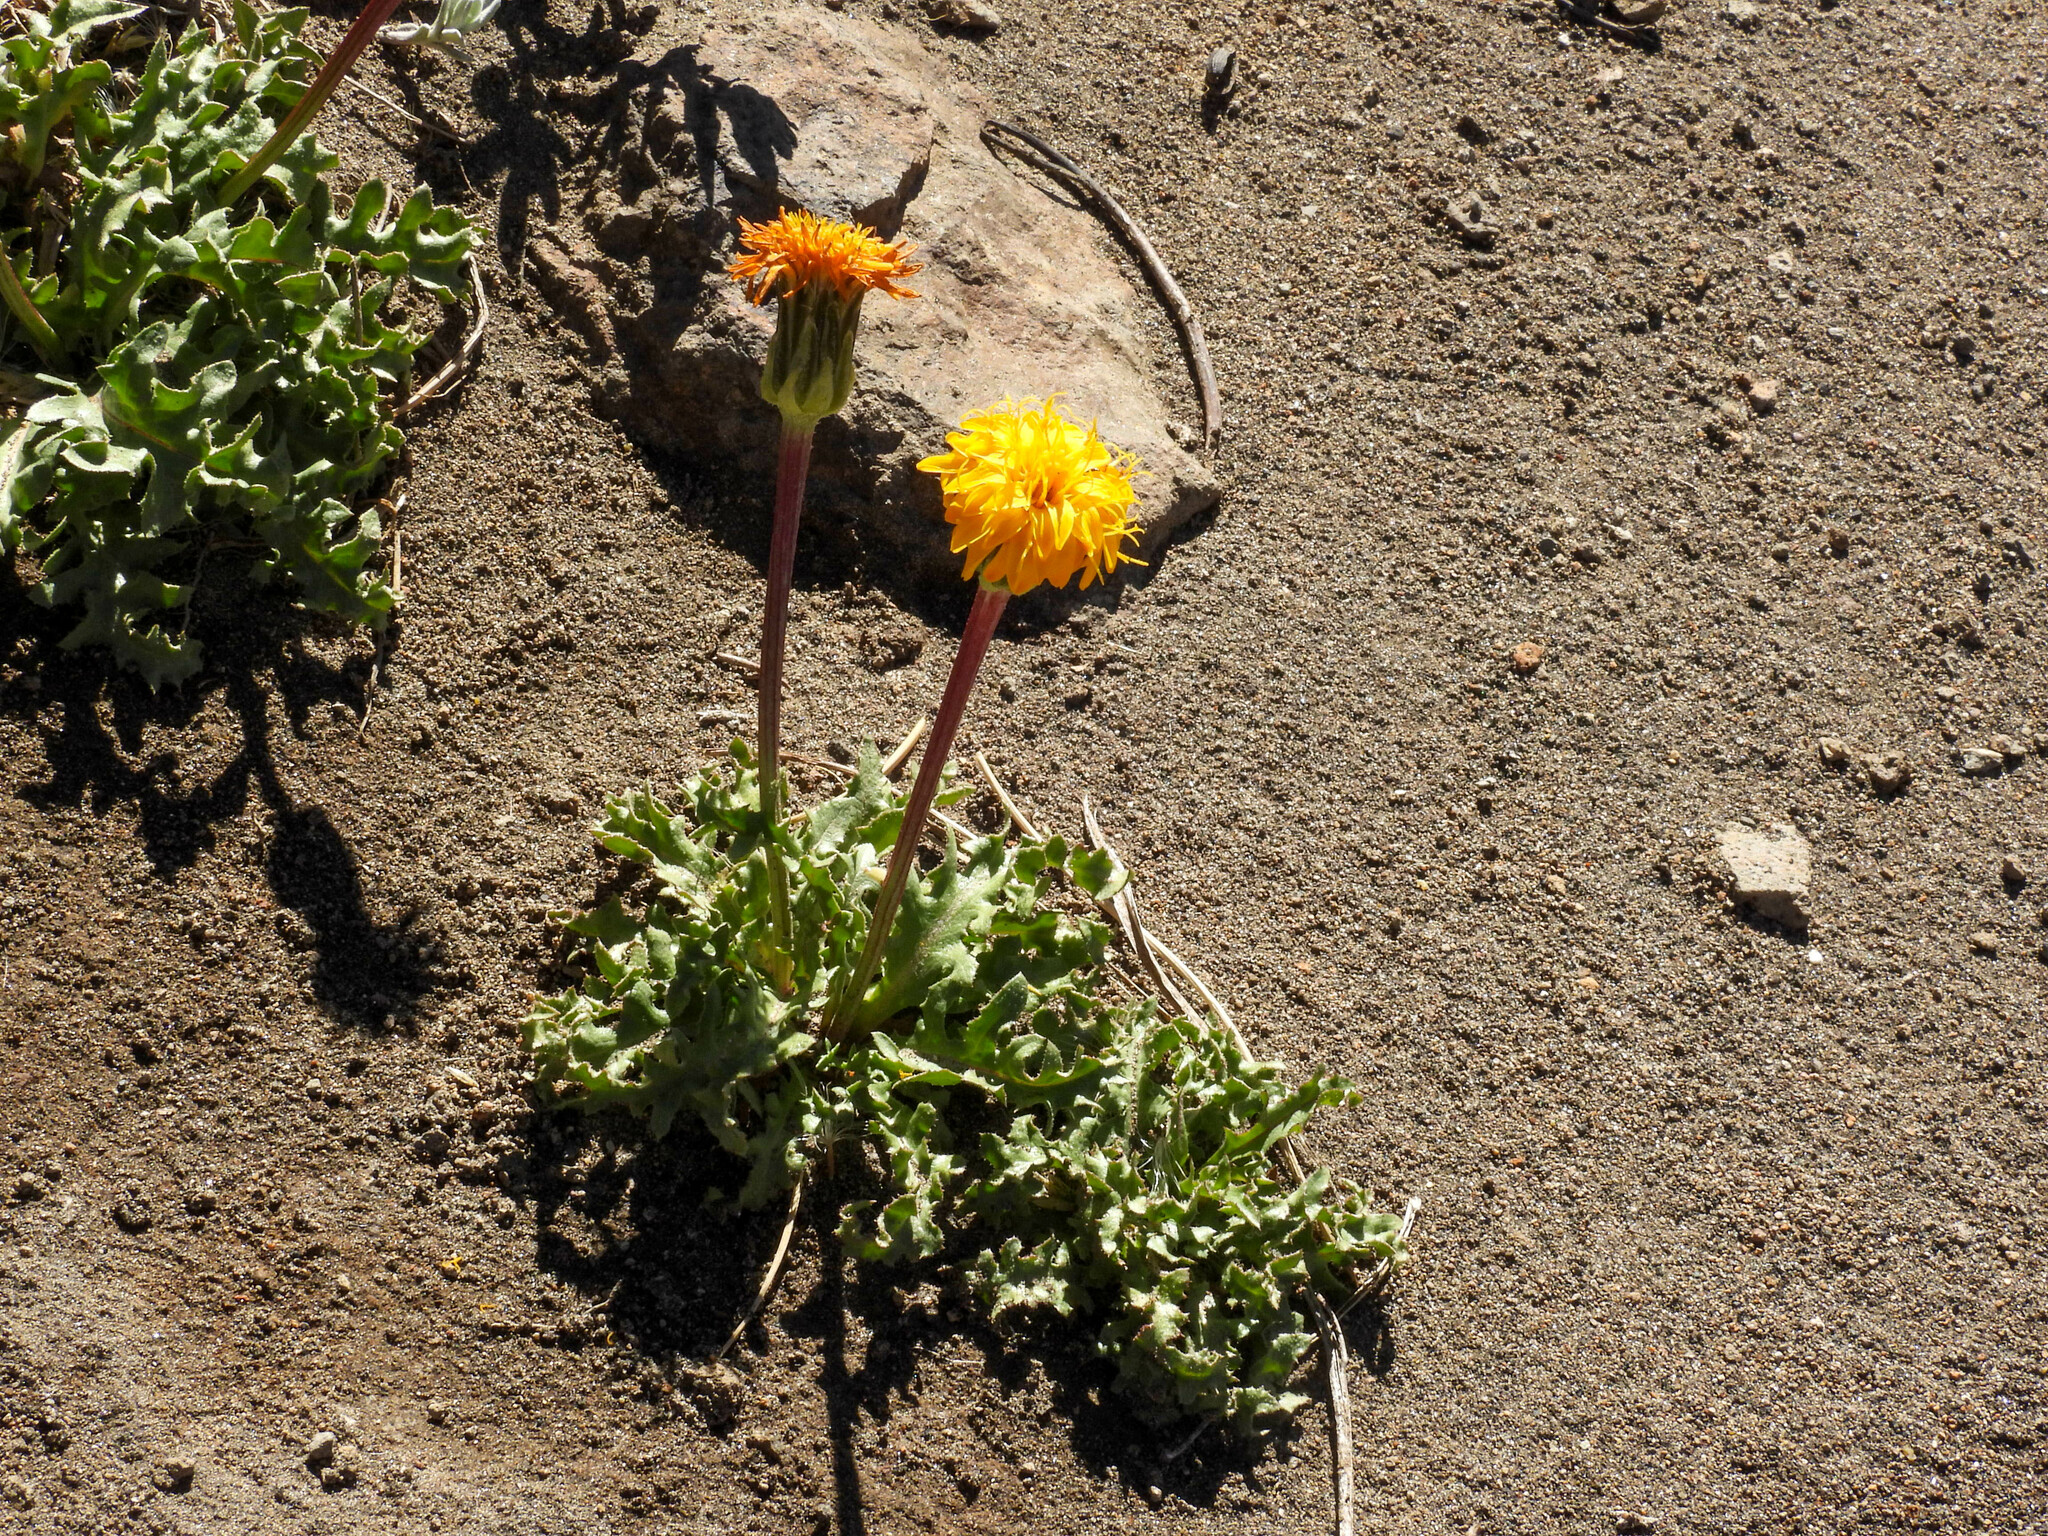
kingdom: Plantae
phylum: Tracheophyta
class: Magnoliopsida
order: Asterales
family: Asteraceae
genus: Hypochaeris
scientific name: Hypochaeris tenuifolia
